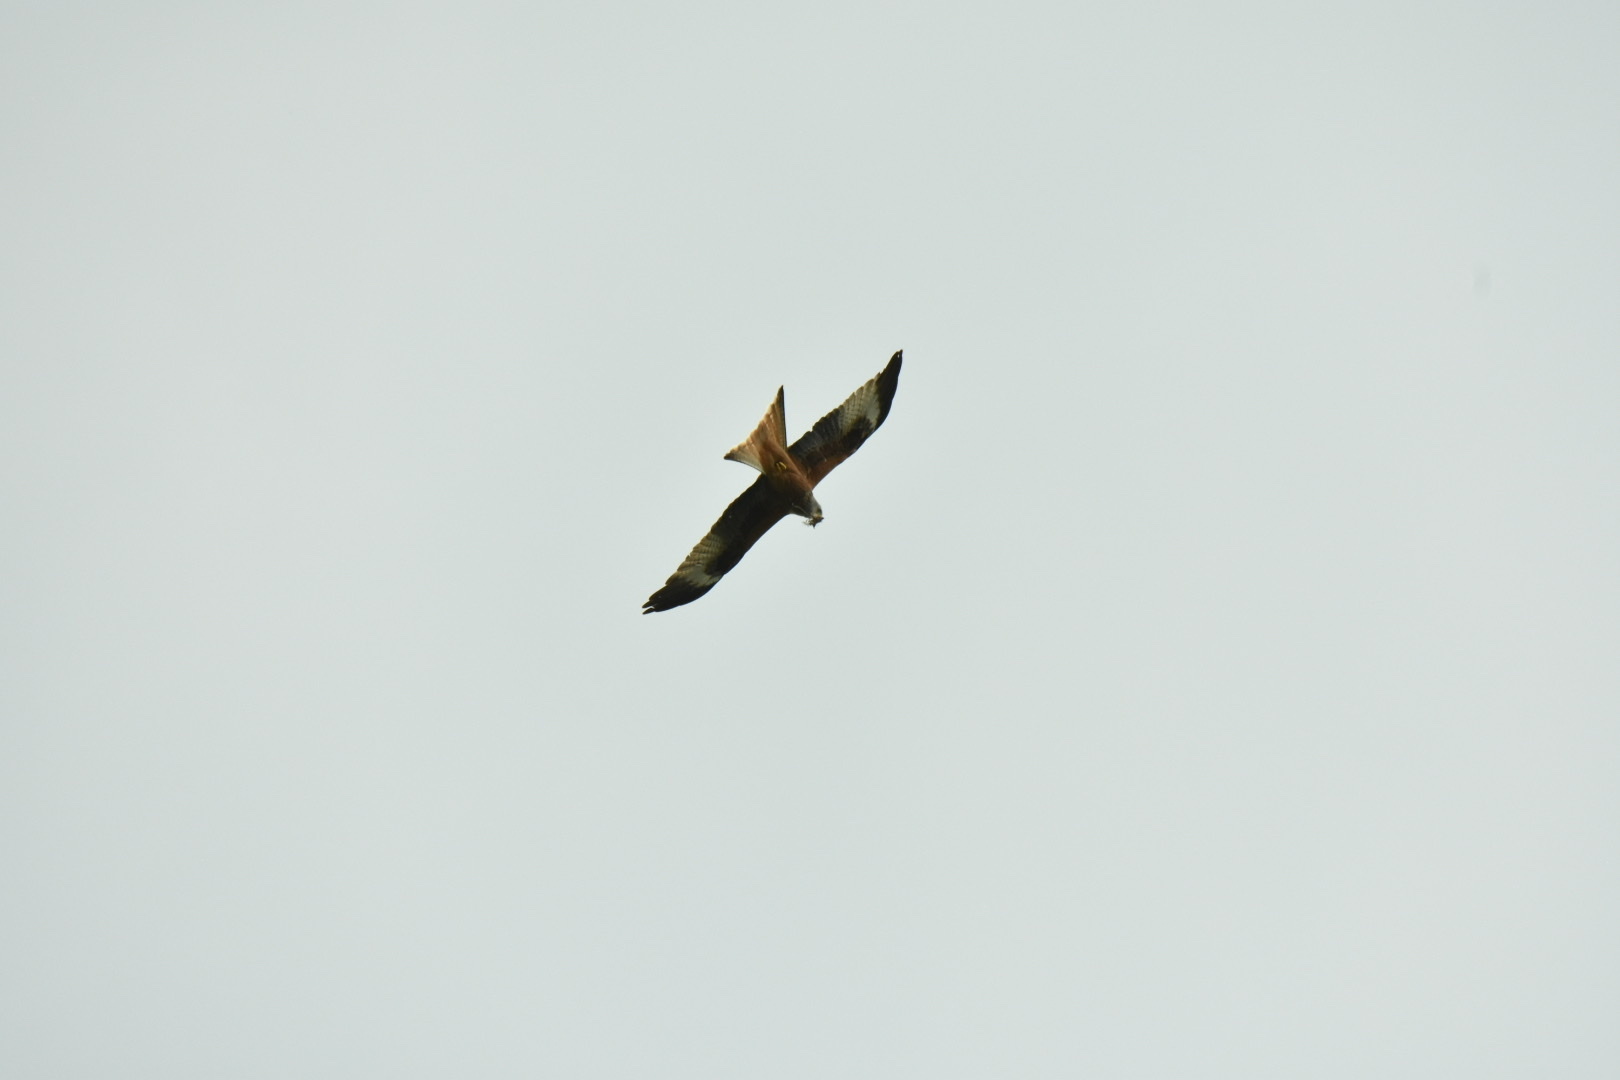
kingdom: Animalia
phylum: Chordata
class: Aves
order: Accipitriformes
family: Accipitridae
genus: Milvus
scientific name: Milvus milvus
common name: Red kite
